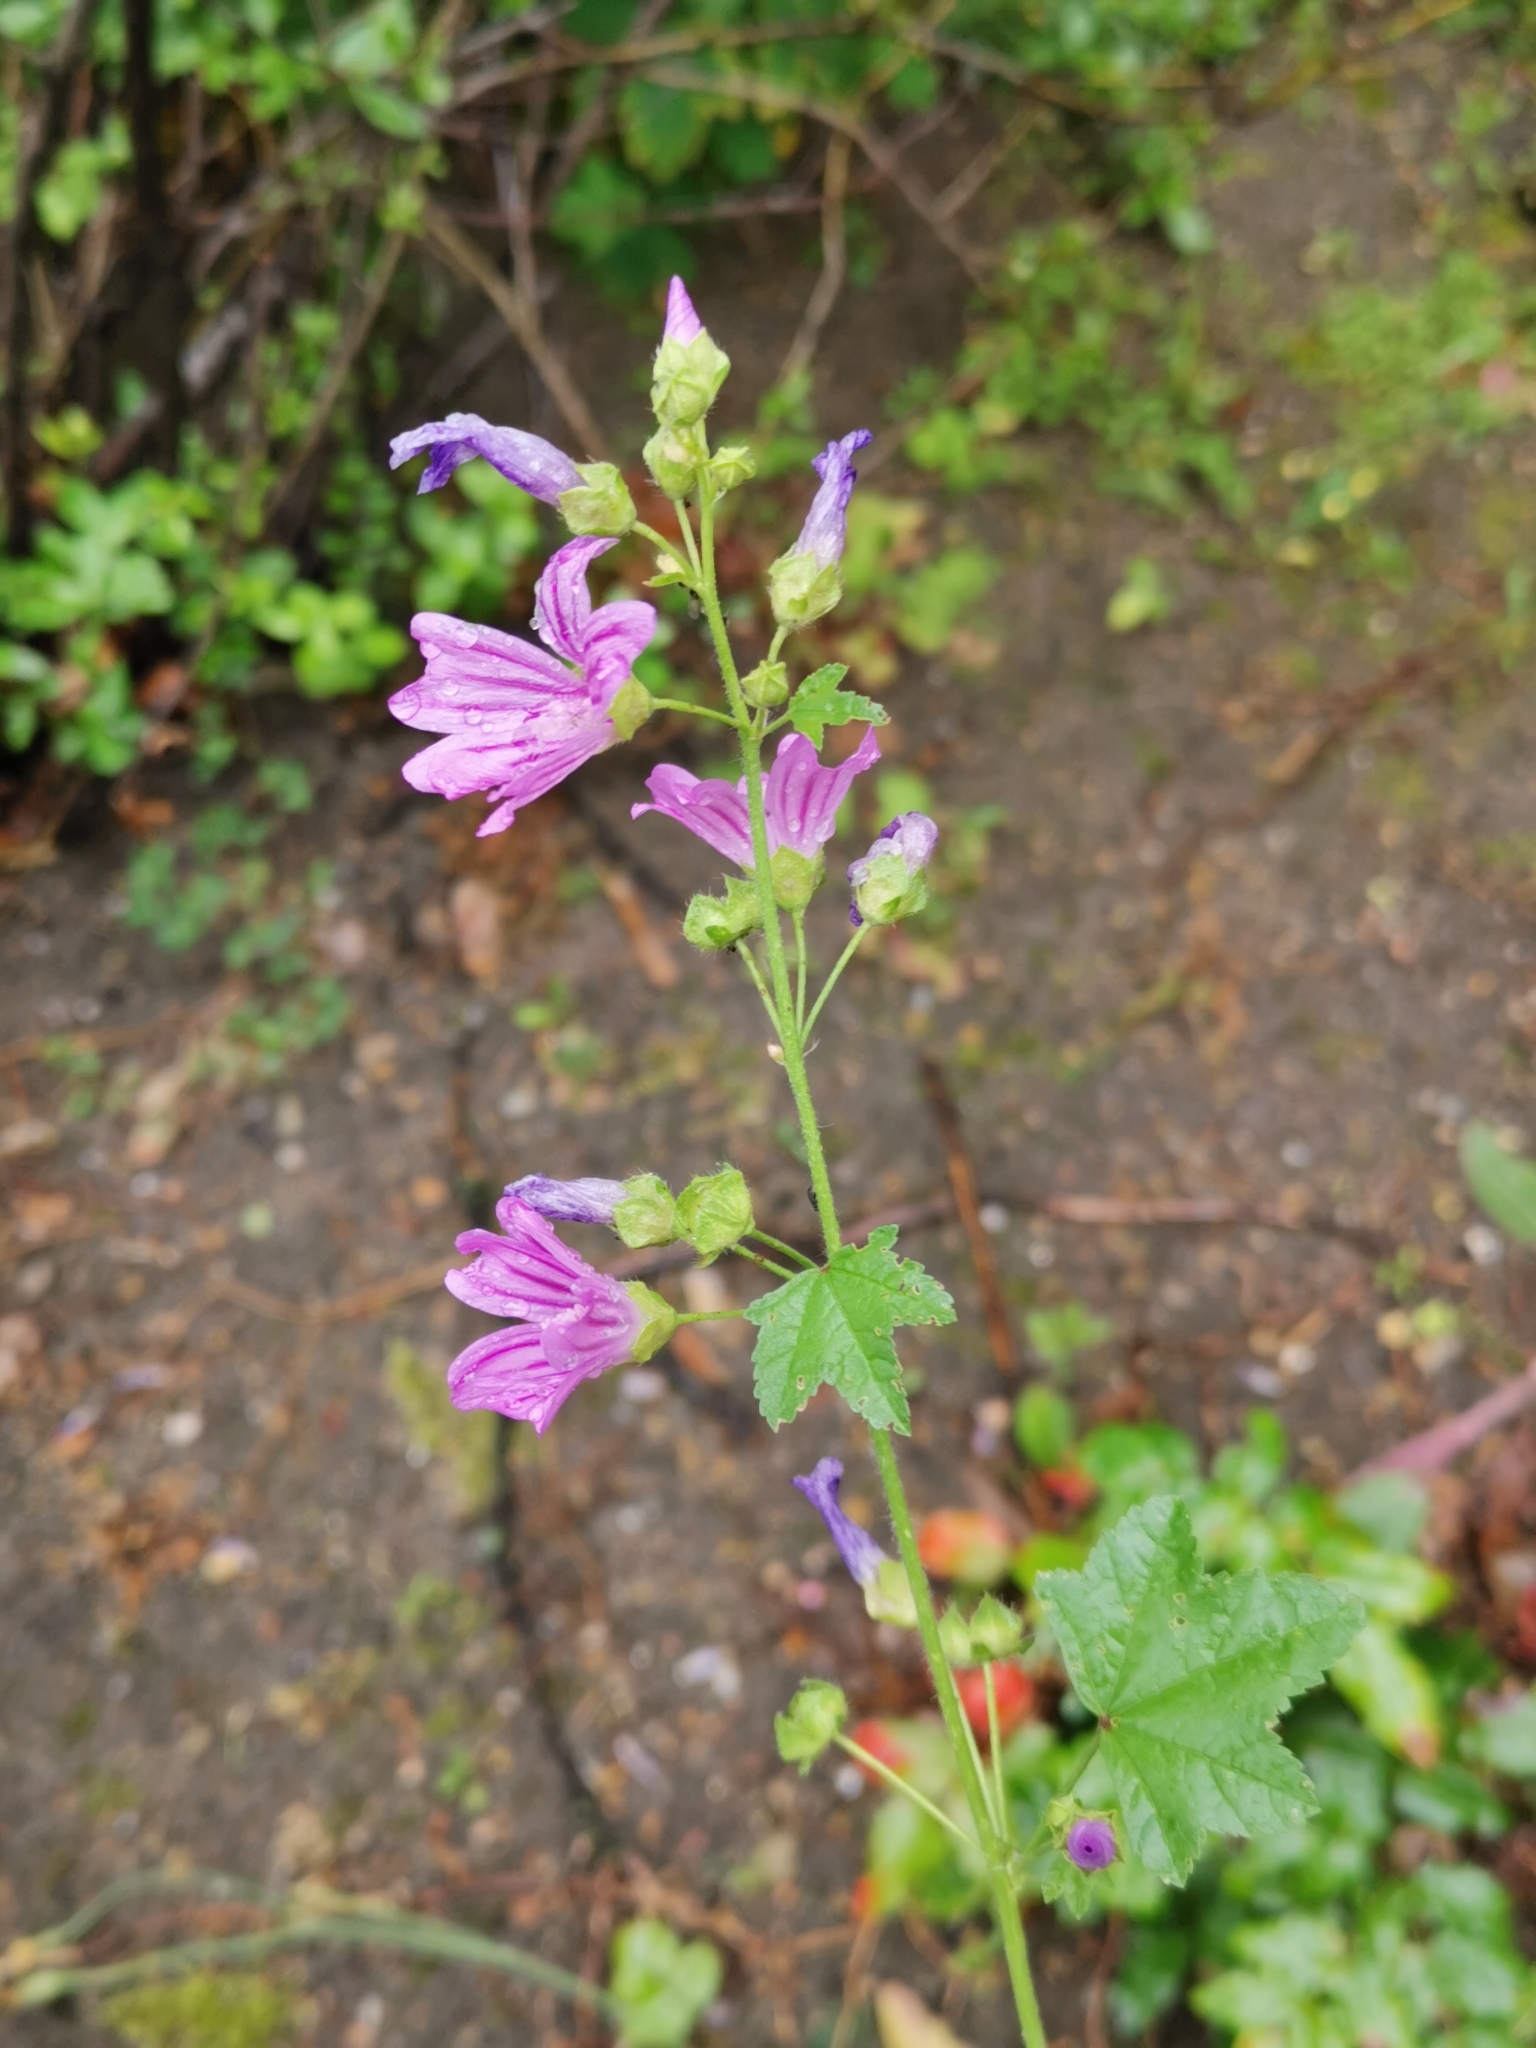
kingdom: Plantae
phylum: Tracheophyta
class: Magnoliopsida
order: Malvales
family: Malvaceae
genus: Malva
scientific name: Malva sylvestris
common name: Common mallow
